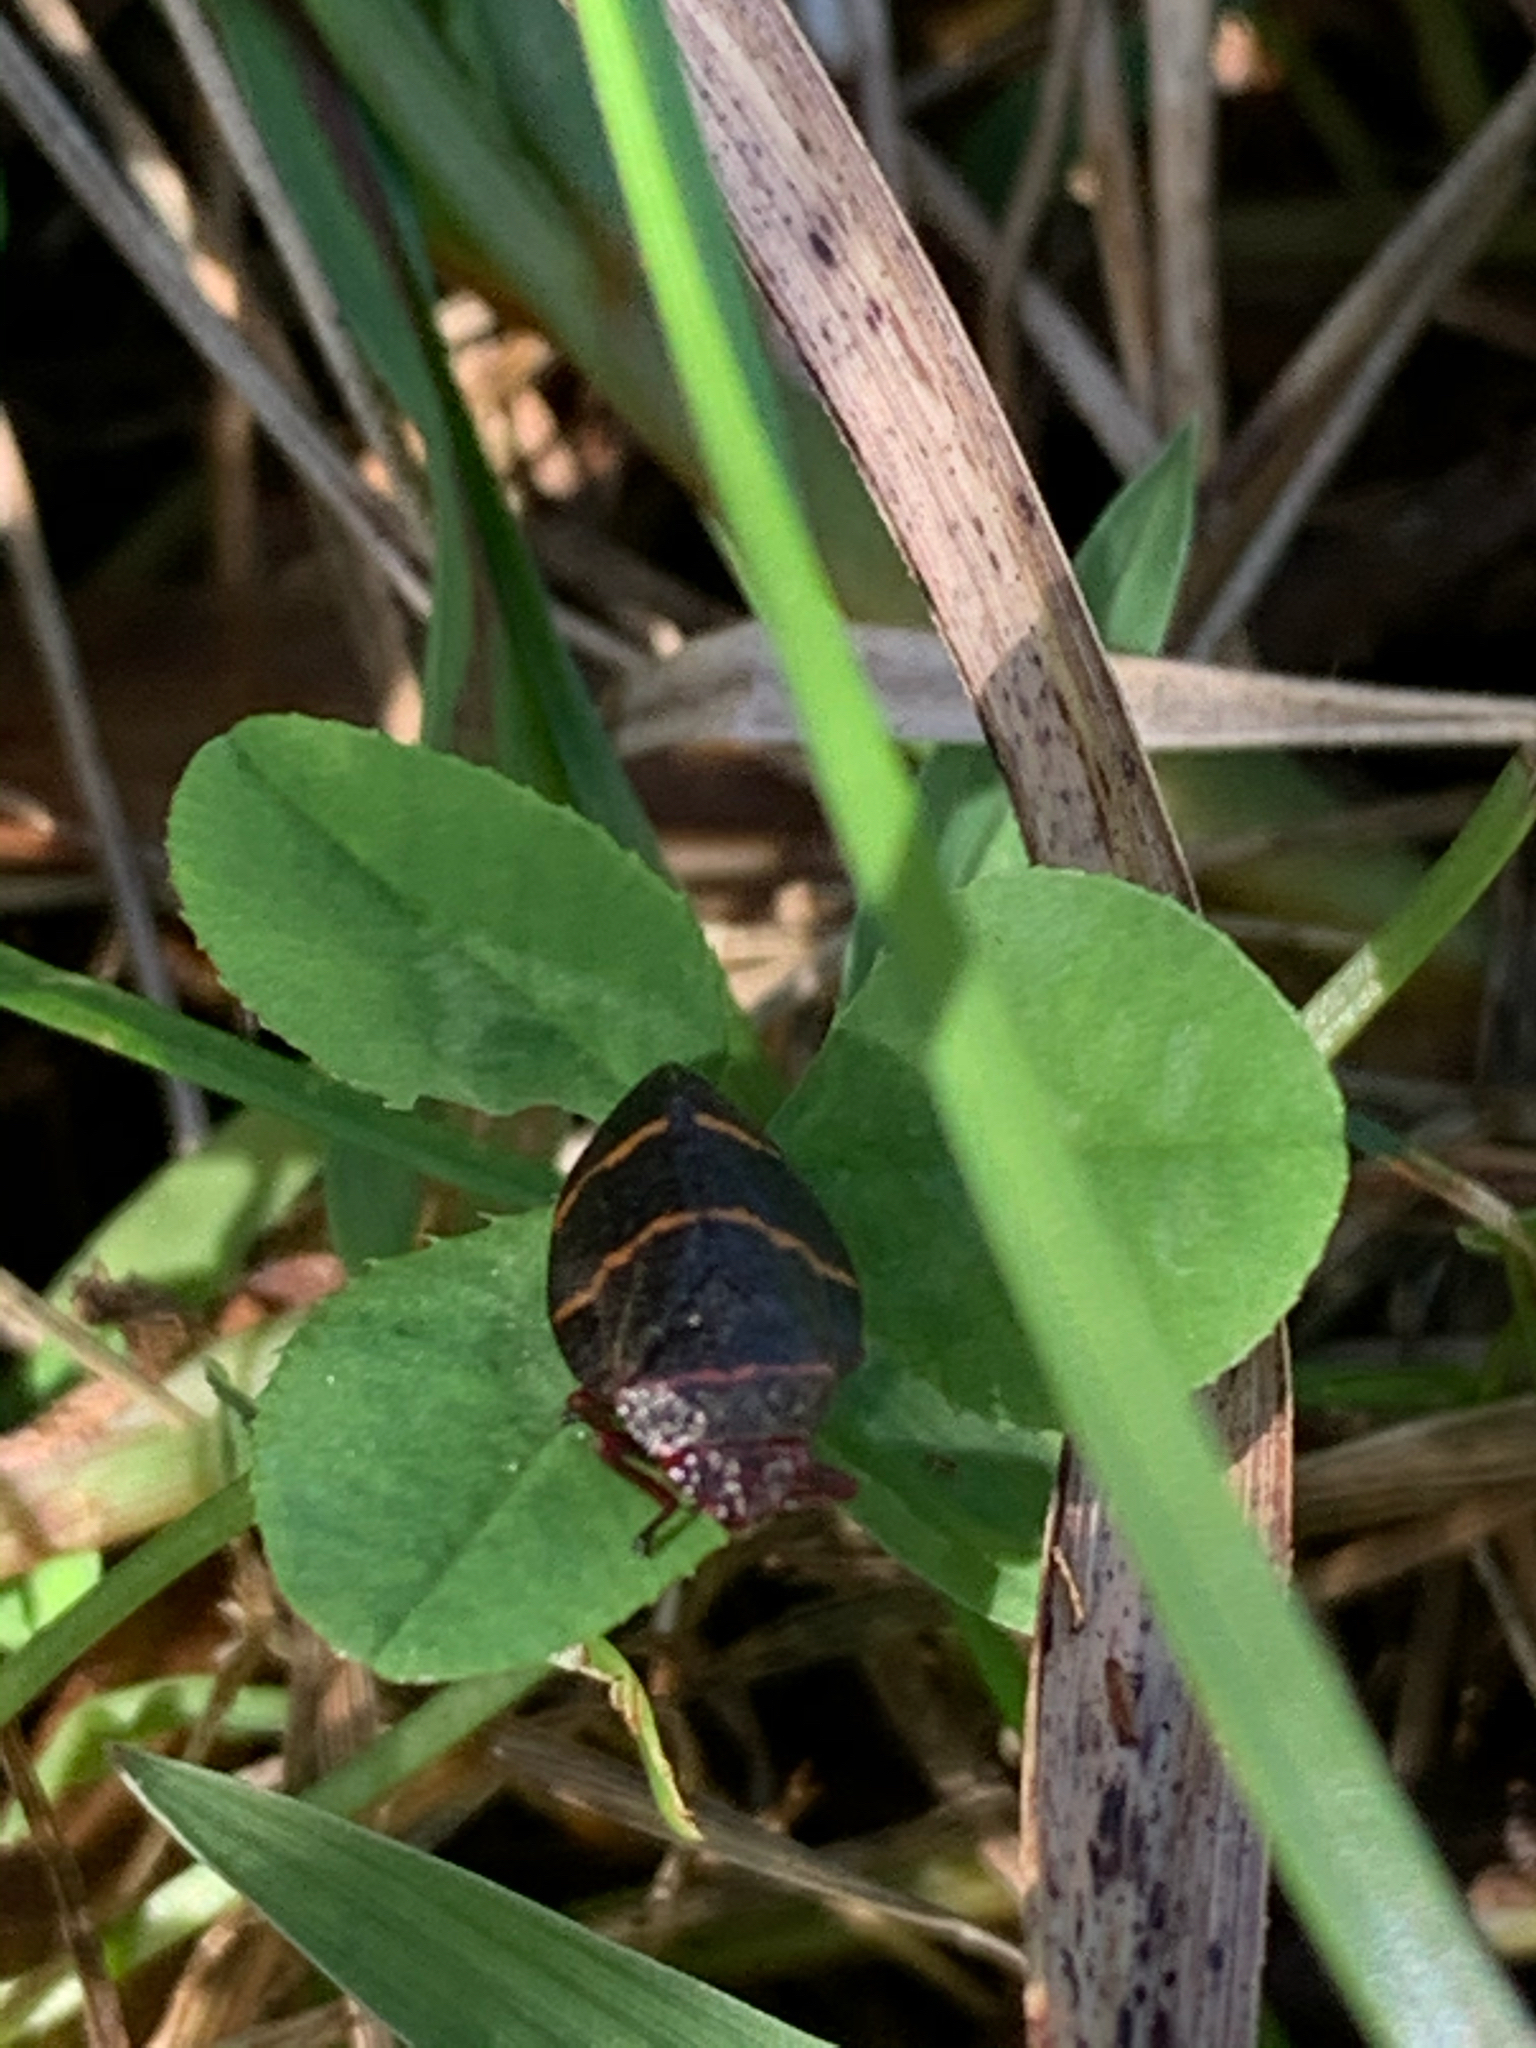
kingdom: Animalia
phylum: Arthropoda
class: Insecta
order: Hemiptera
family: Cercopidae
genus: Prosapia
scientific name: Prosapia bicincta
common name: Twolined spittlebug
